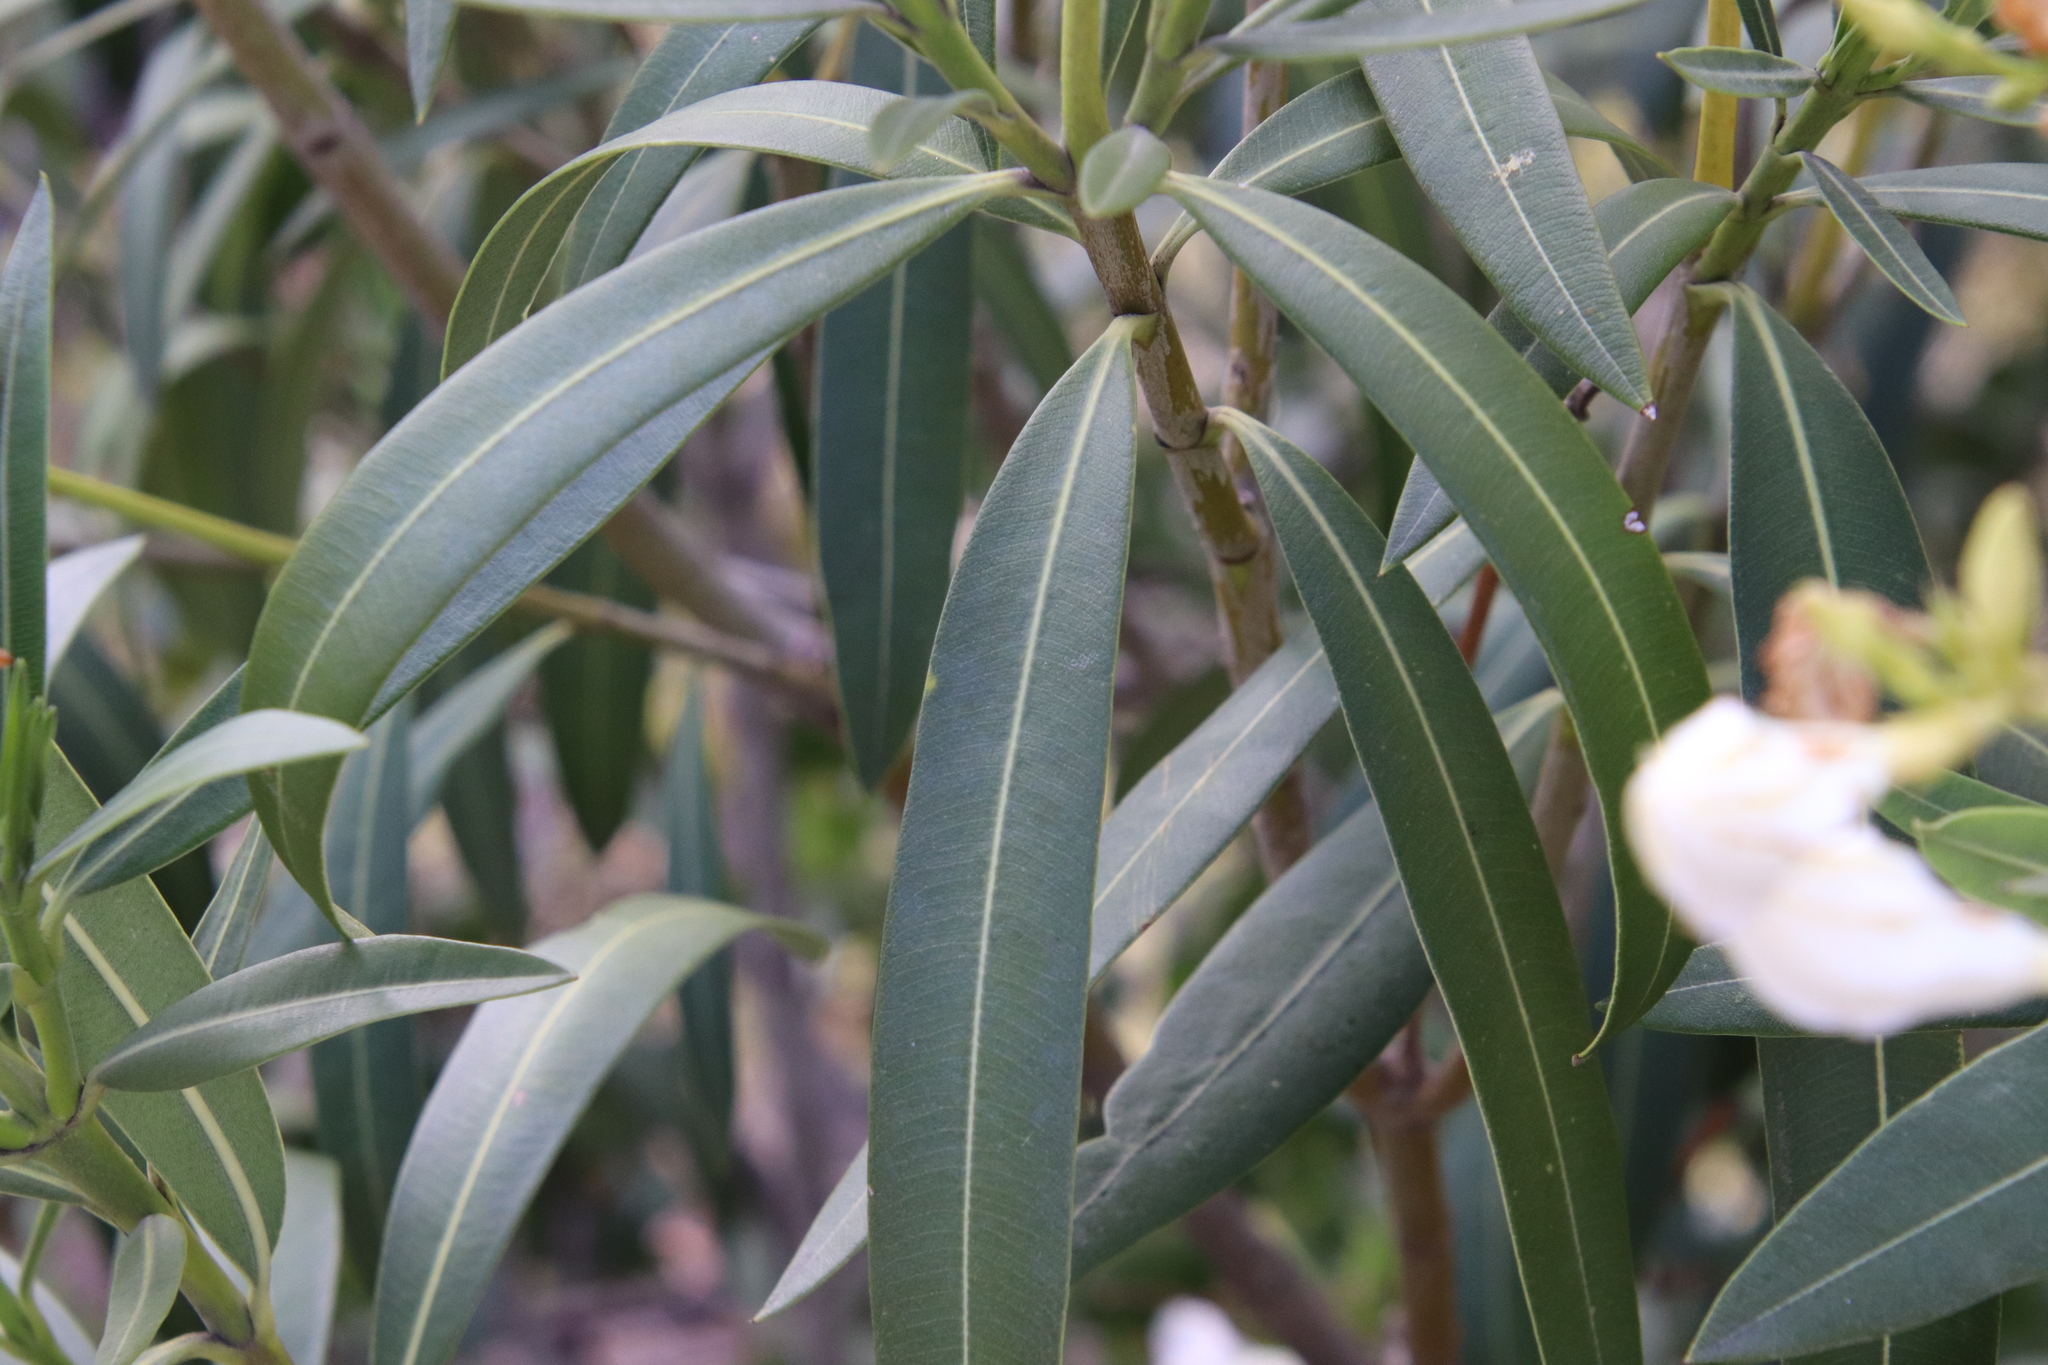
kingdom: Plantae
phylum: Tracheophyta
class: Magnoliopsida
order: Gentianales
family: Apocynaceae
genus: Nerium
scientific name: Nerium oleander
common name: Oleander
